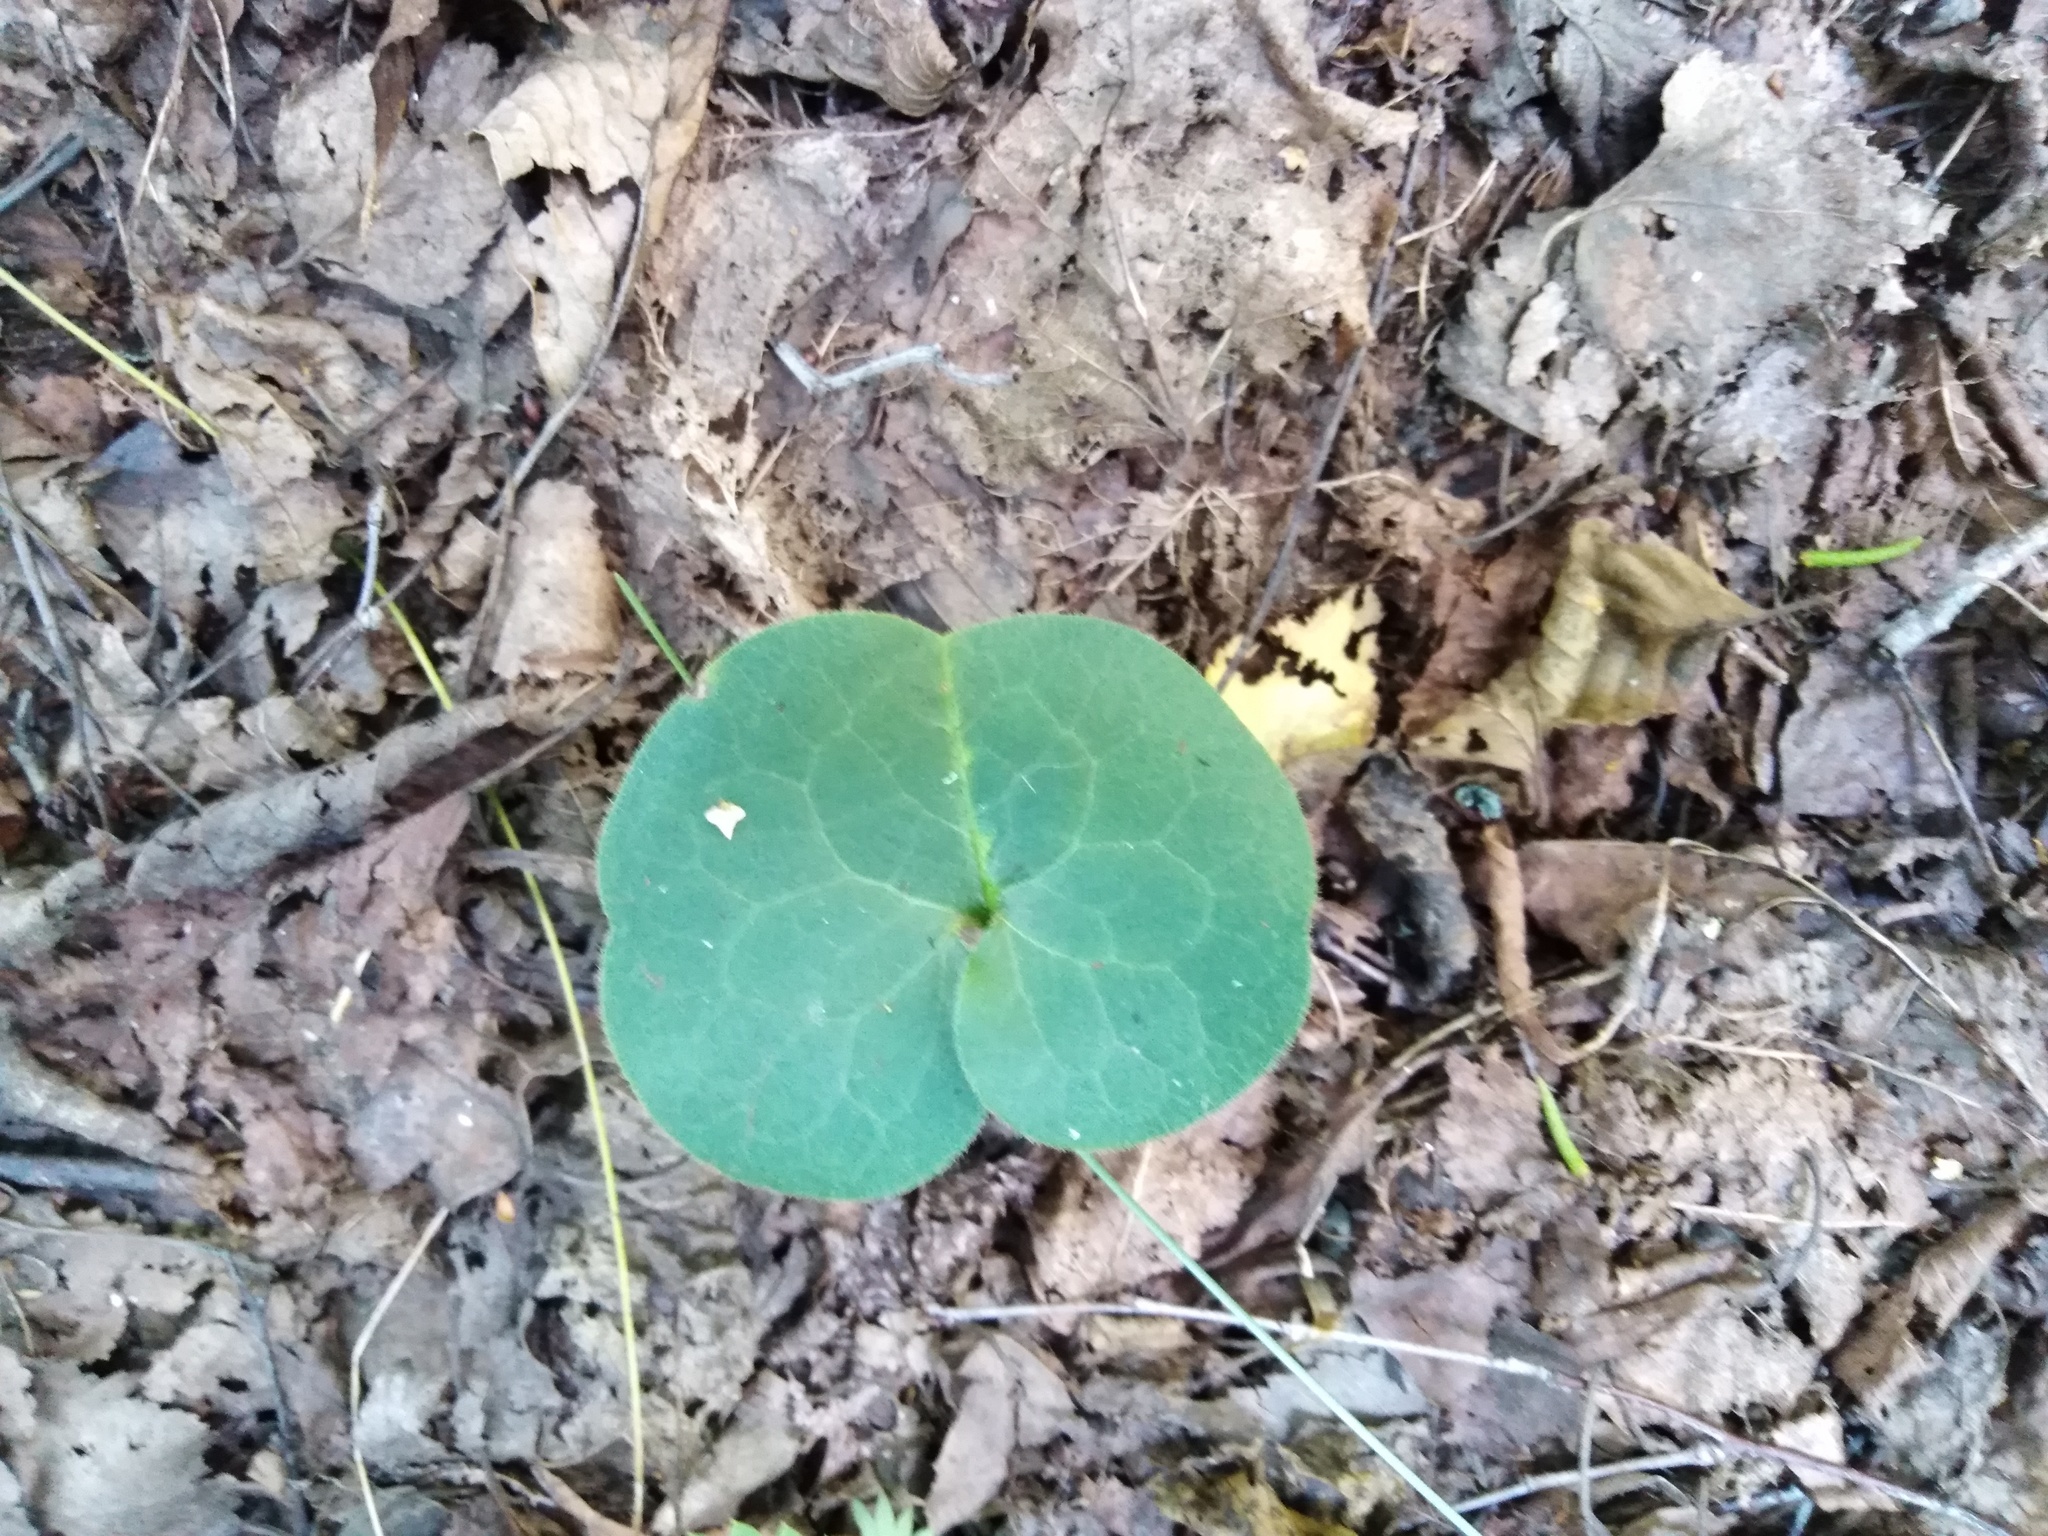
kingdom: Plantae
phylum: Tracheophyta
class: Magnoliopsida
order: Piperales
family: Aristolochiaceae
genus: Asarum
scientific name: Asarum europaeum
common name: Asarabacca
